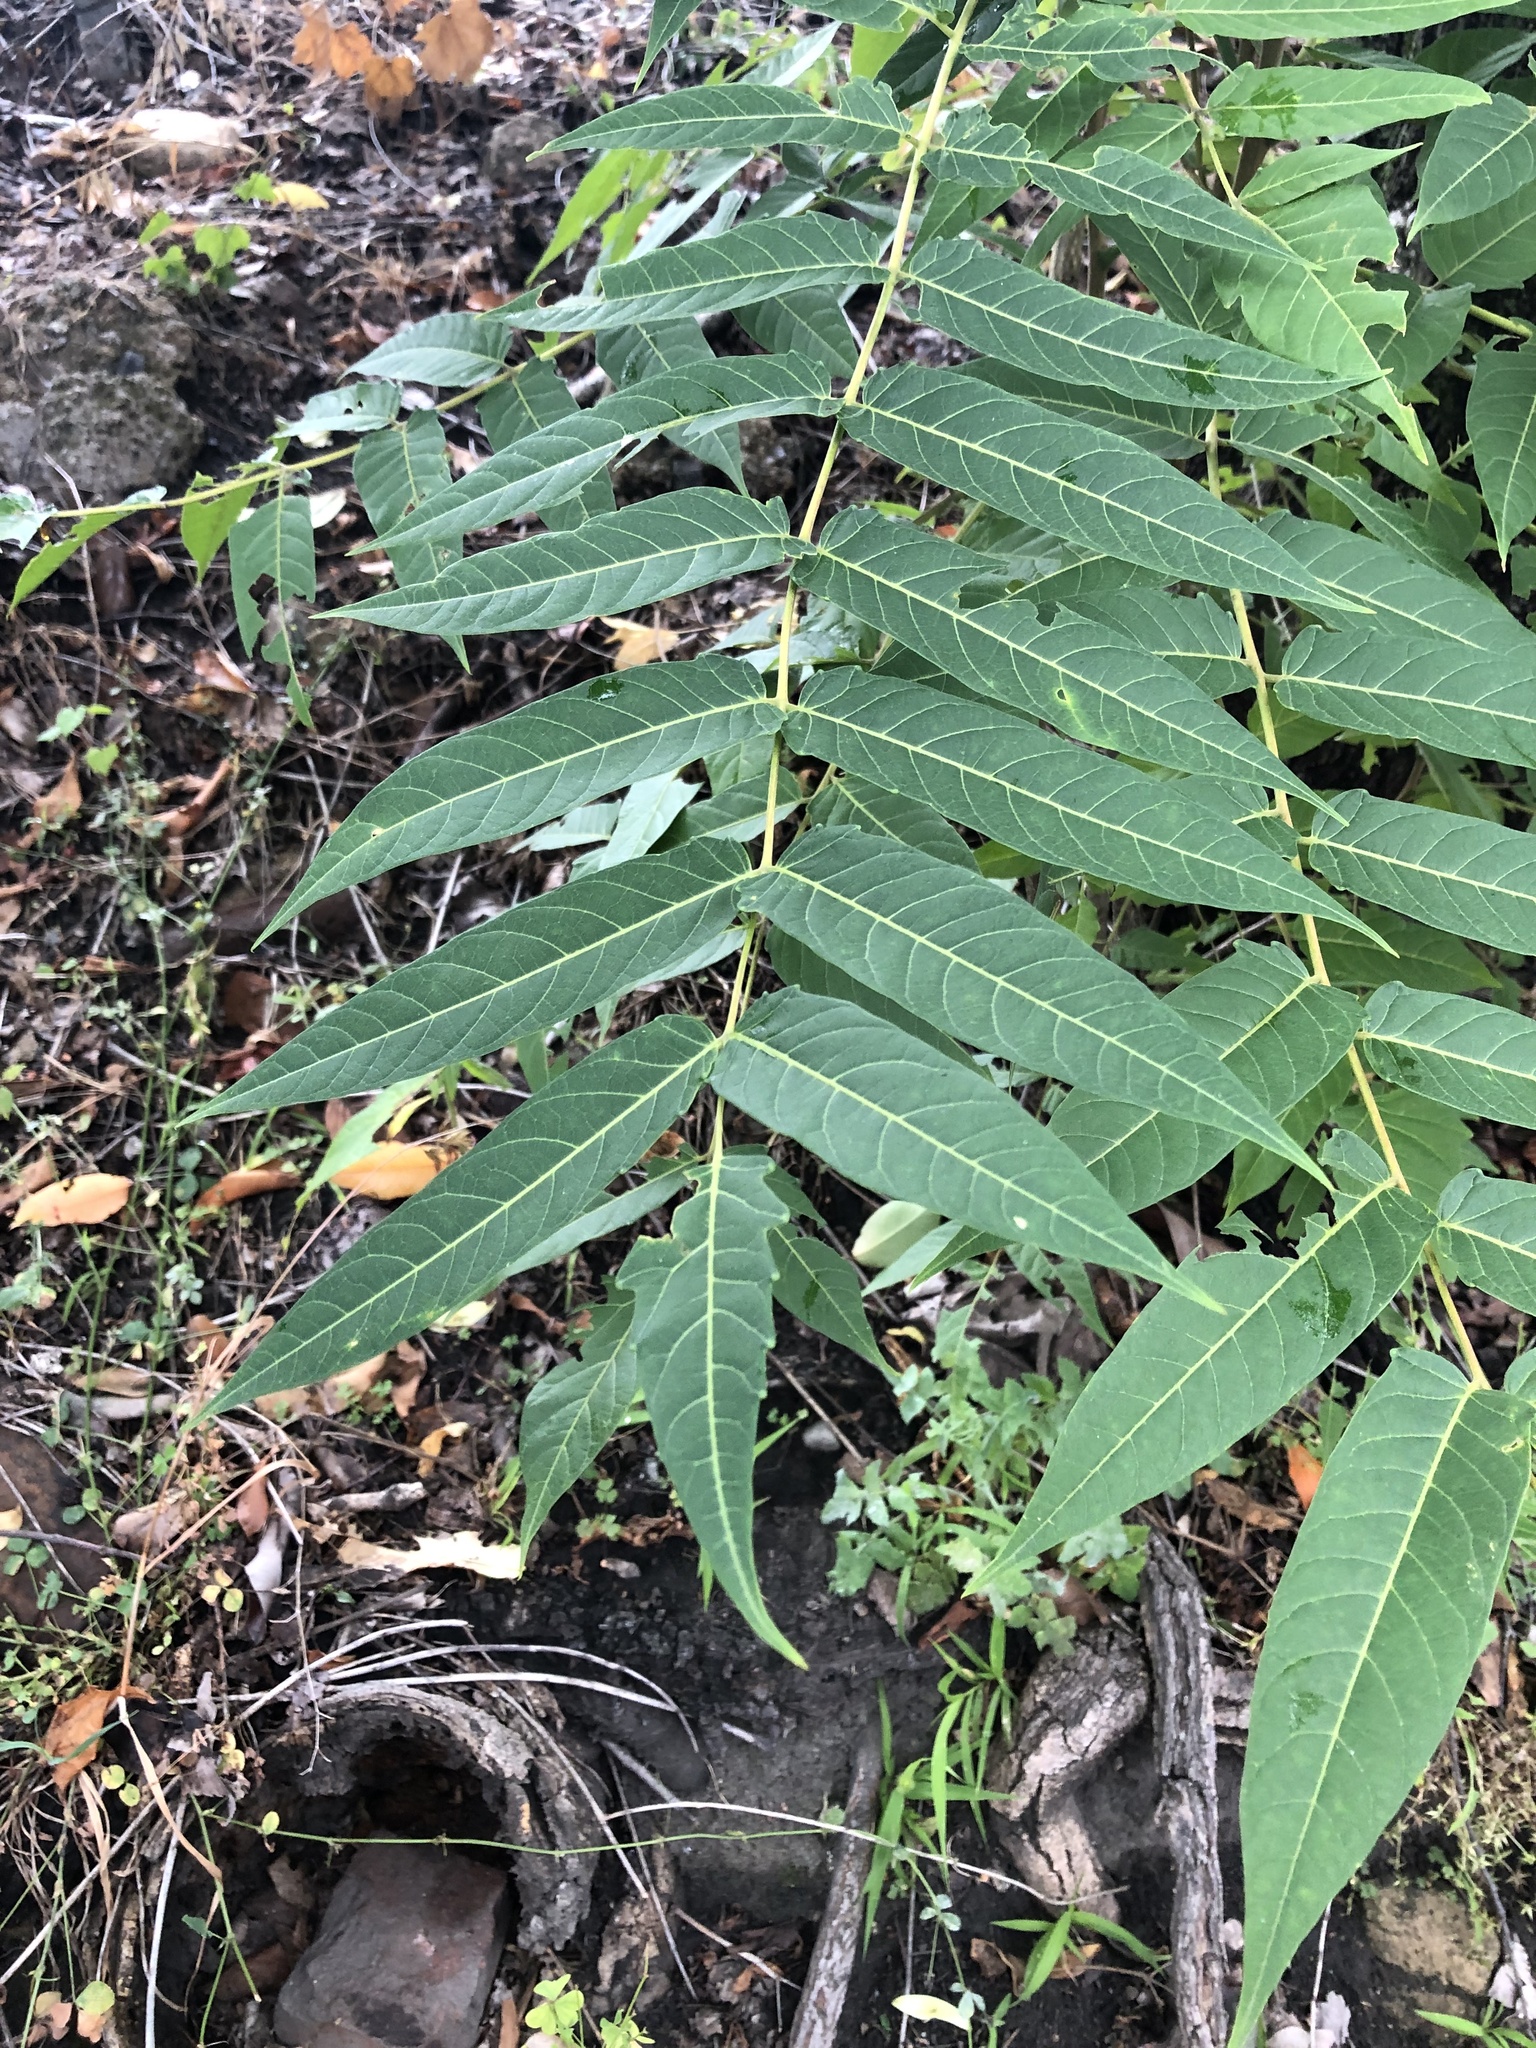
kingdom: Plantae
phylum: Tracheophyta
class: Magnoliopsida
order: Sapindales
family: Simaroubaceae
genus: Ailanthus
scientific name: Ailanthus altissima
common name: Tree-of-heaven
